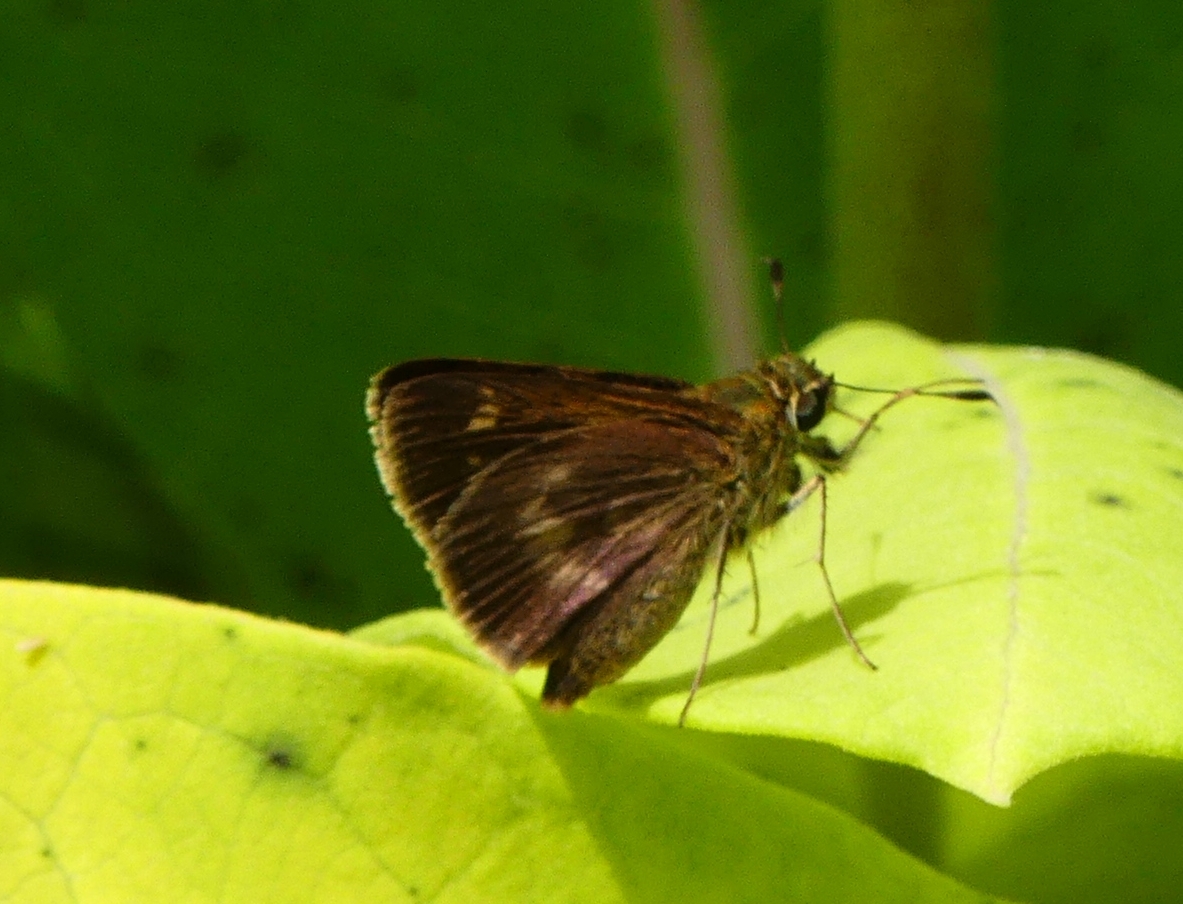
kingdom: Animalia
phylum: Arthropoda
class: Insecta
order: Lepidoptera
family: Hesperiidae
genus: Polites
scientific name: Polites egeremet
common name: Northern broken-dash
